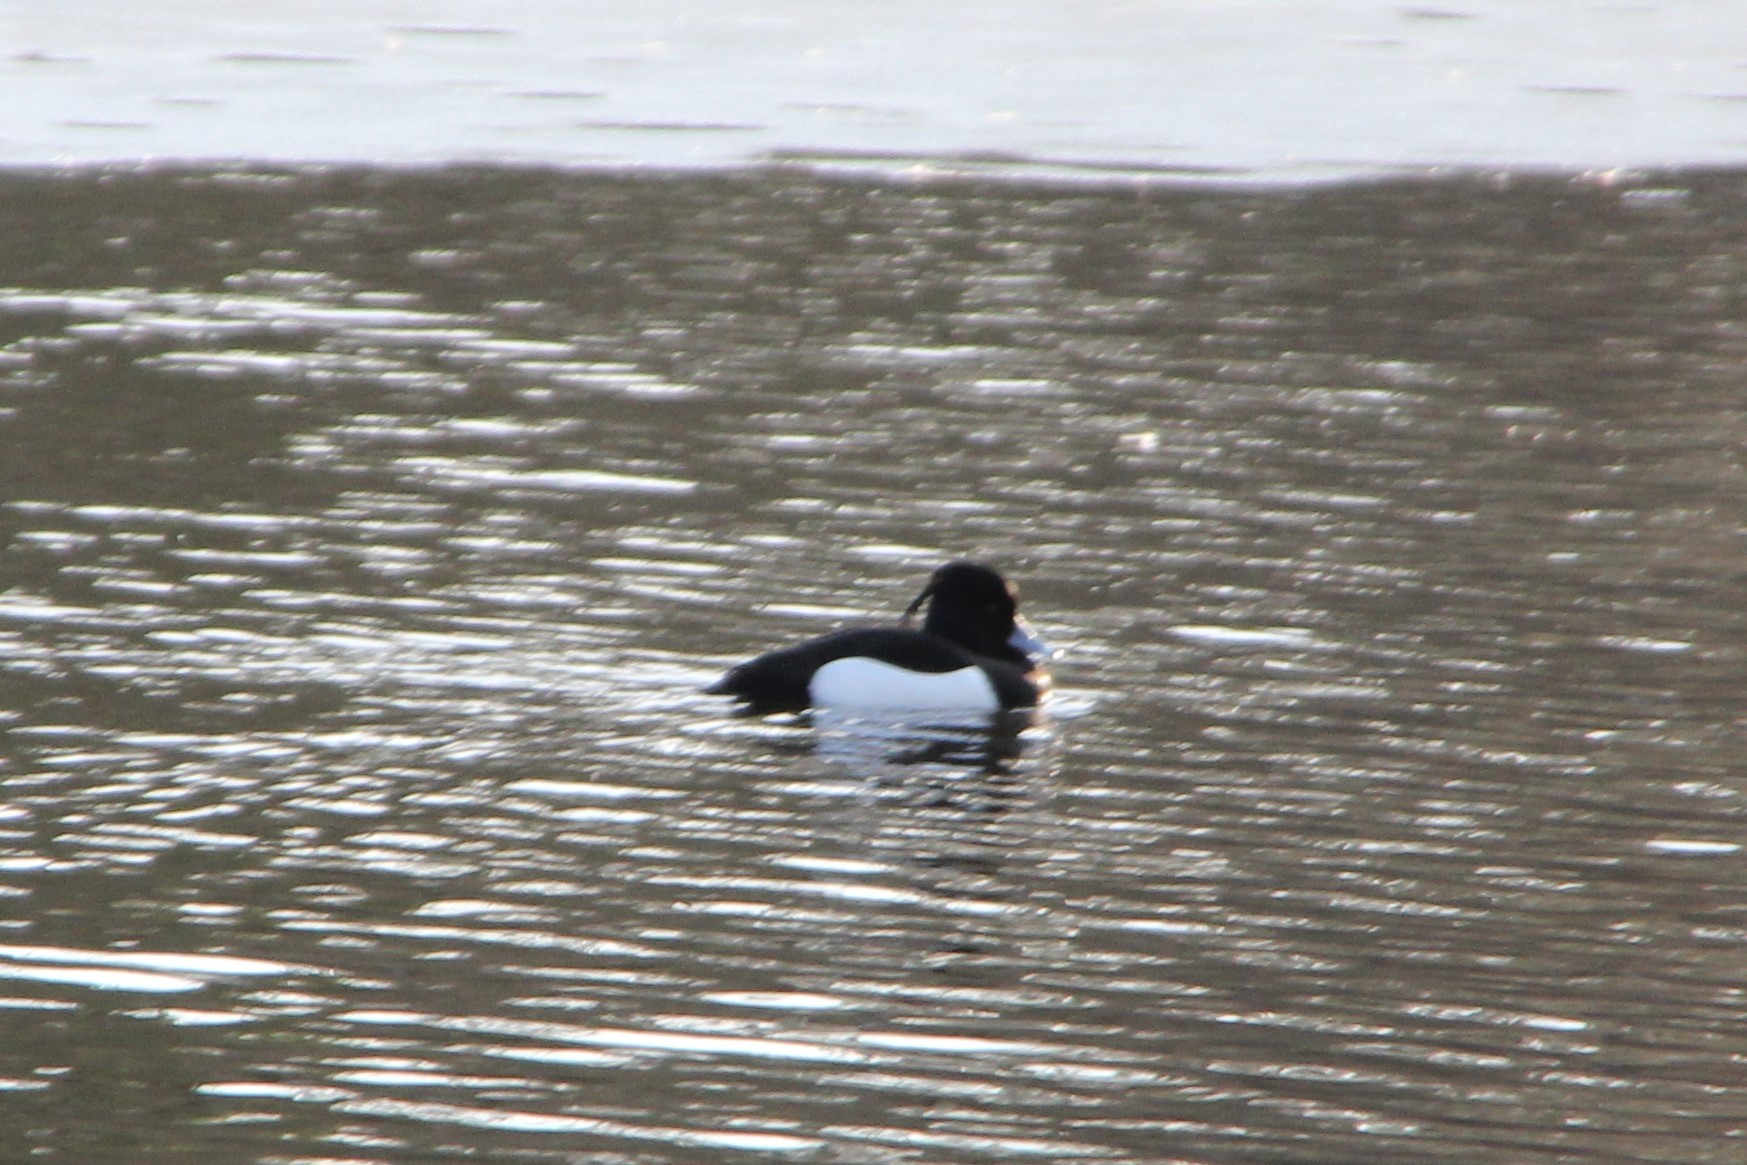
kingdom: Animalia
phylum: Chordata
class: Aves
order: Anseriformes
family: Anatidae
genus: Aythya
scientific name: Aythya fuligula
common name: Tufted duck
